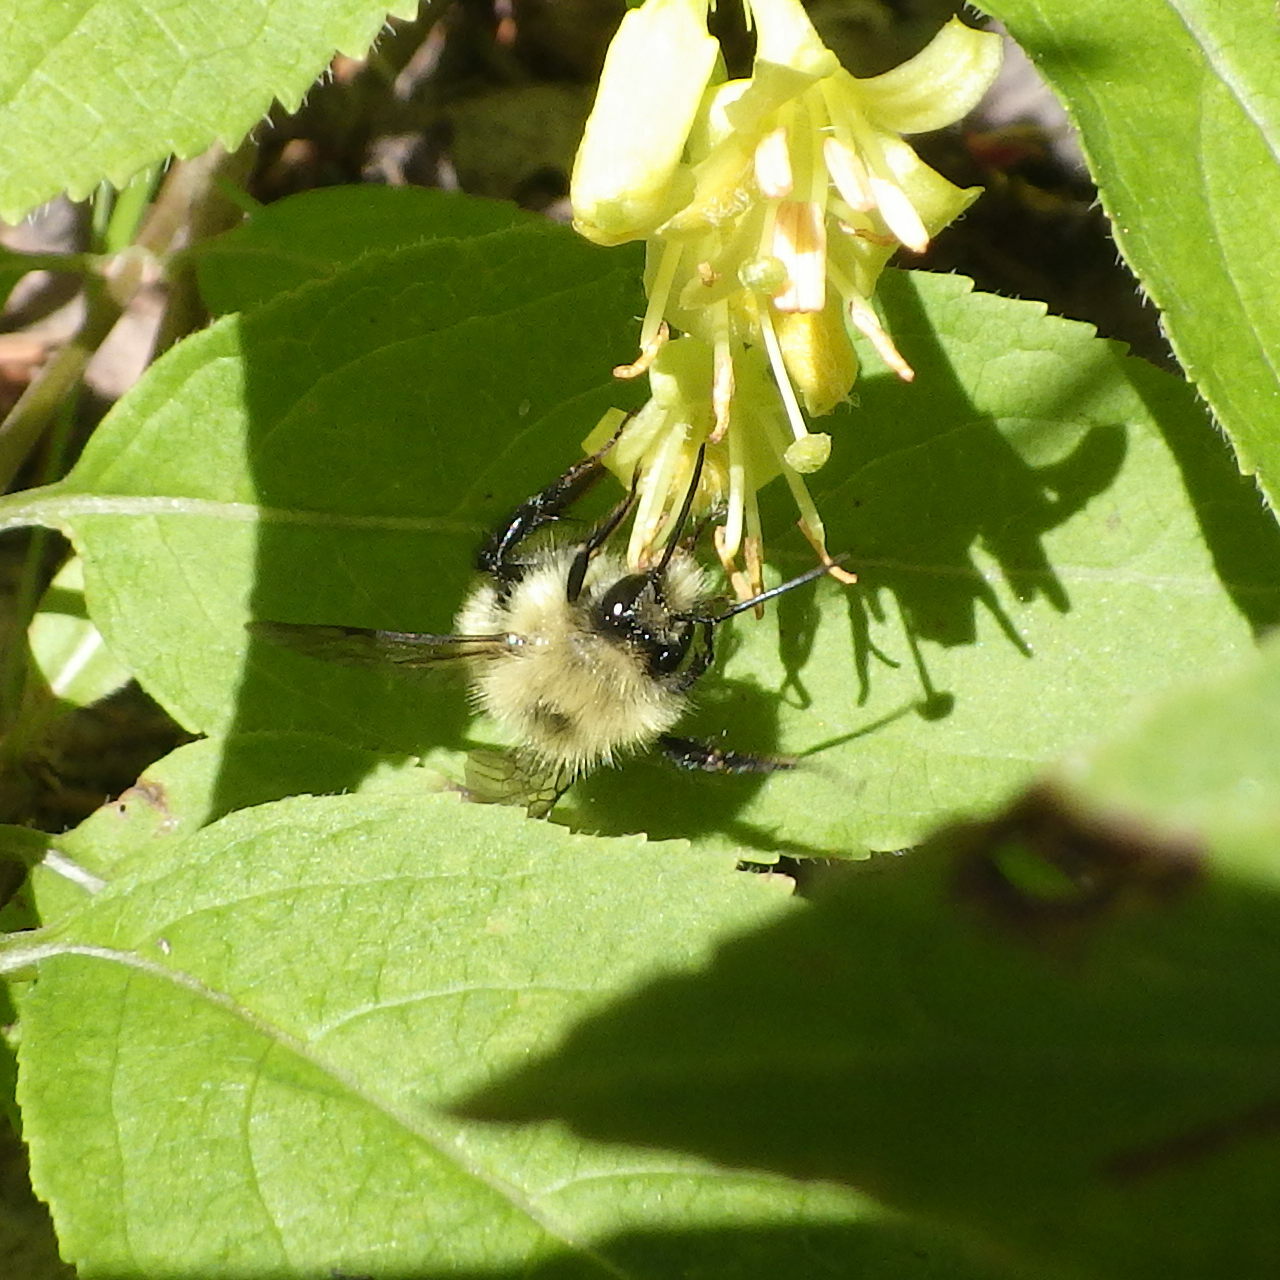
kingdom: Animalia
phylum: Arthropoda
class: Insecta
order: Hymenoptera
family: Apidae
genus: Pyrobombus
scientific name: Pyrobombus
